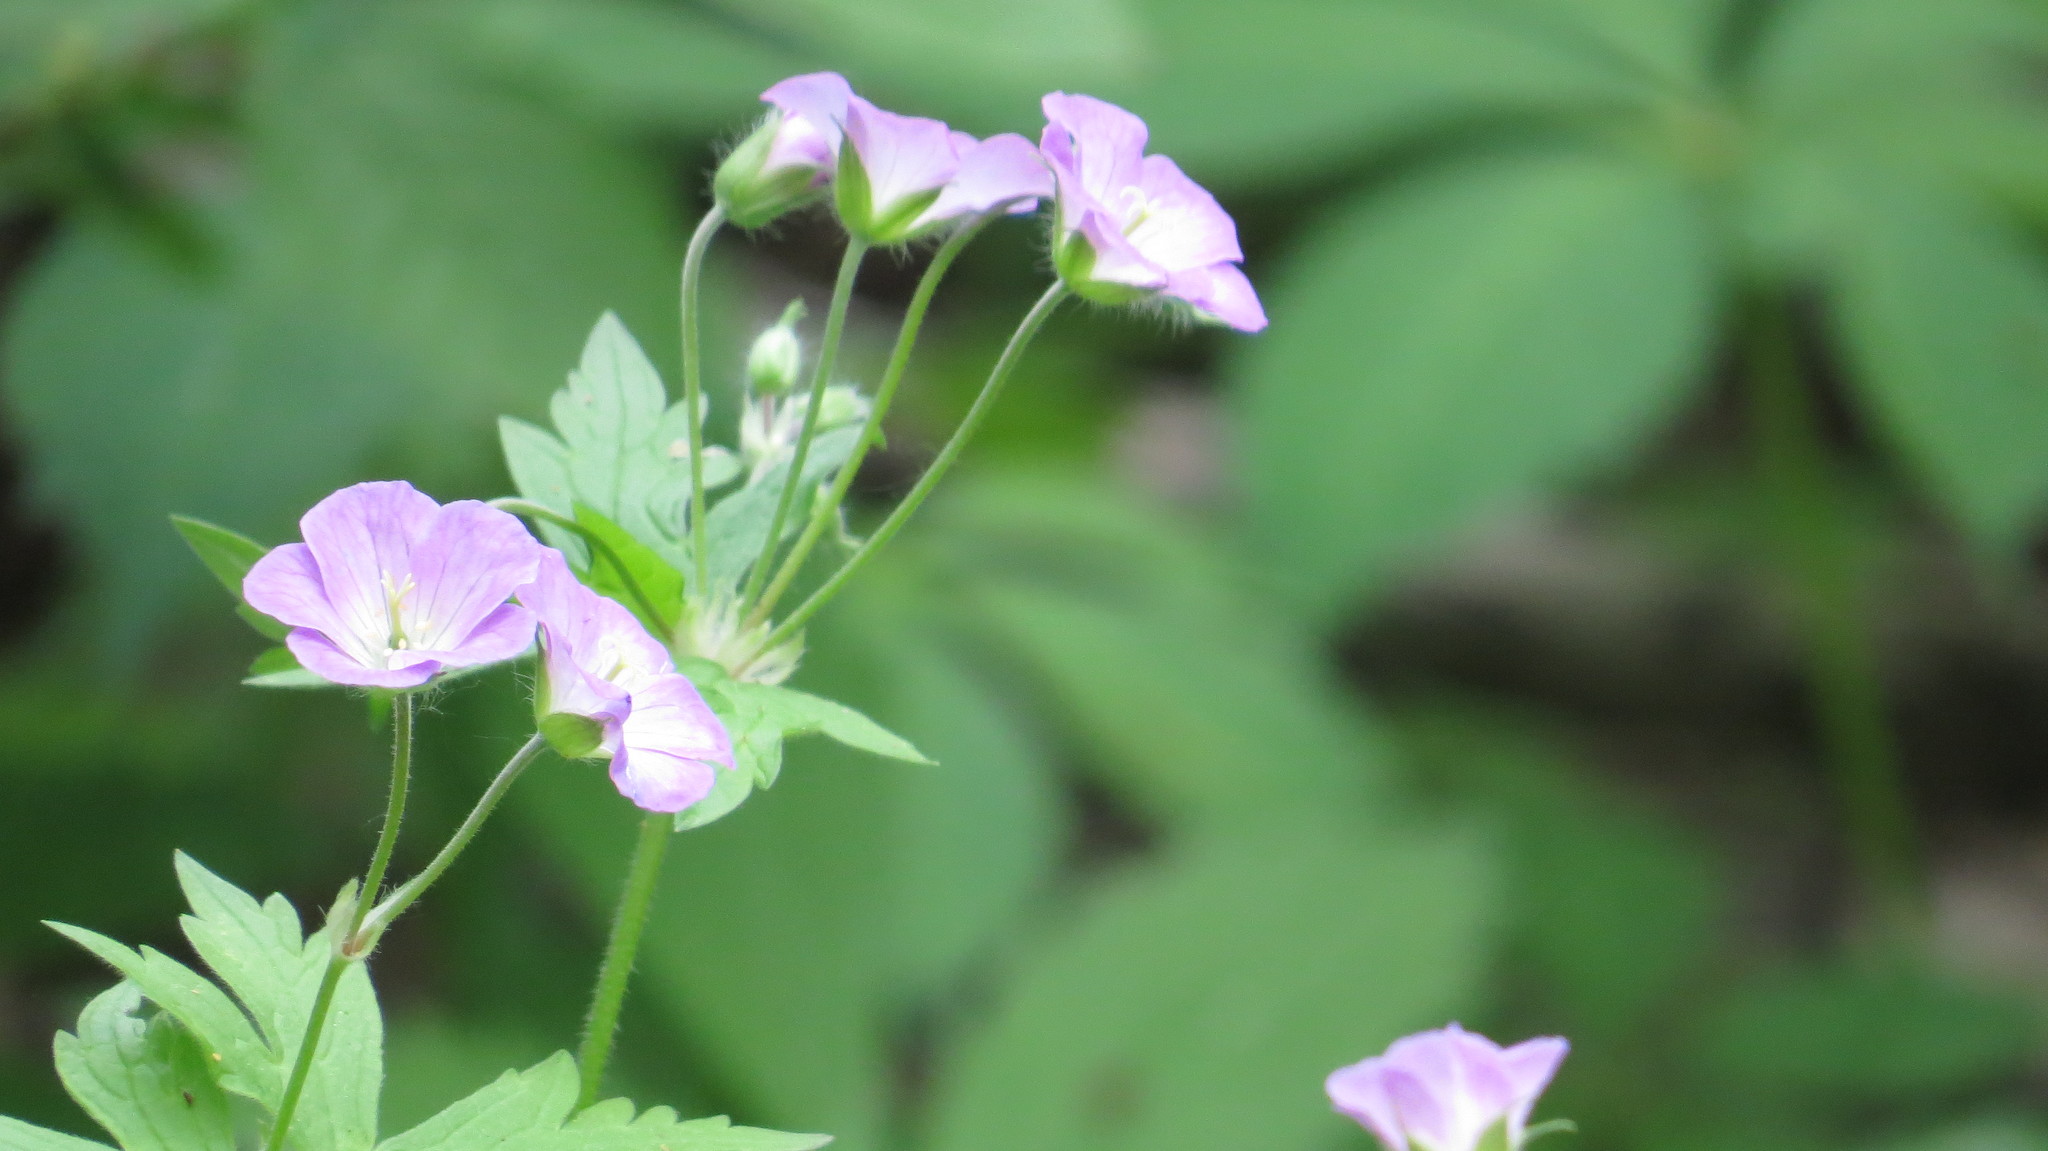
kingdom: Plantae
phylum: Tracheophyta
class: Magnoliopsida
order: Geraniales
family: Geraniaceae
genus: Geranium
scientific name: Geranium maculatum
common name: Spotted geranium
